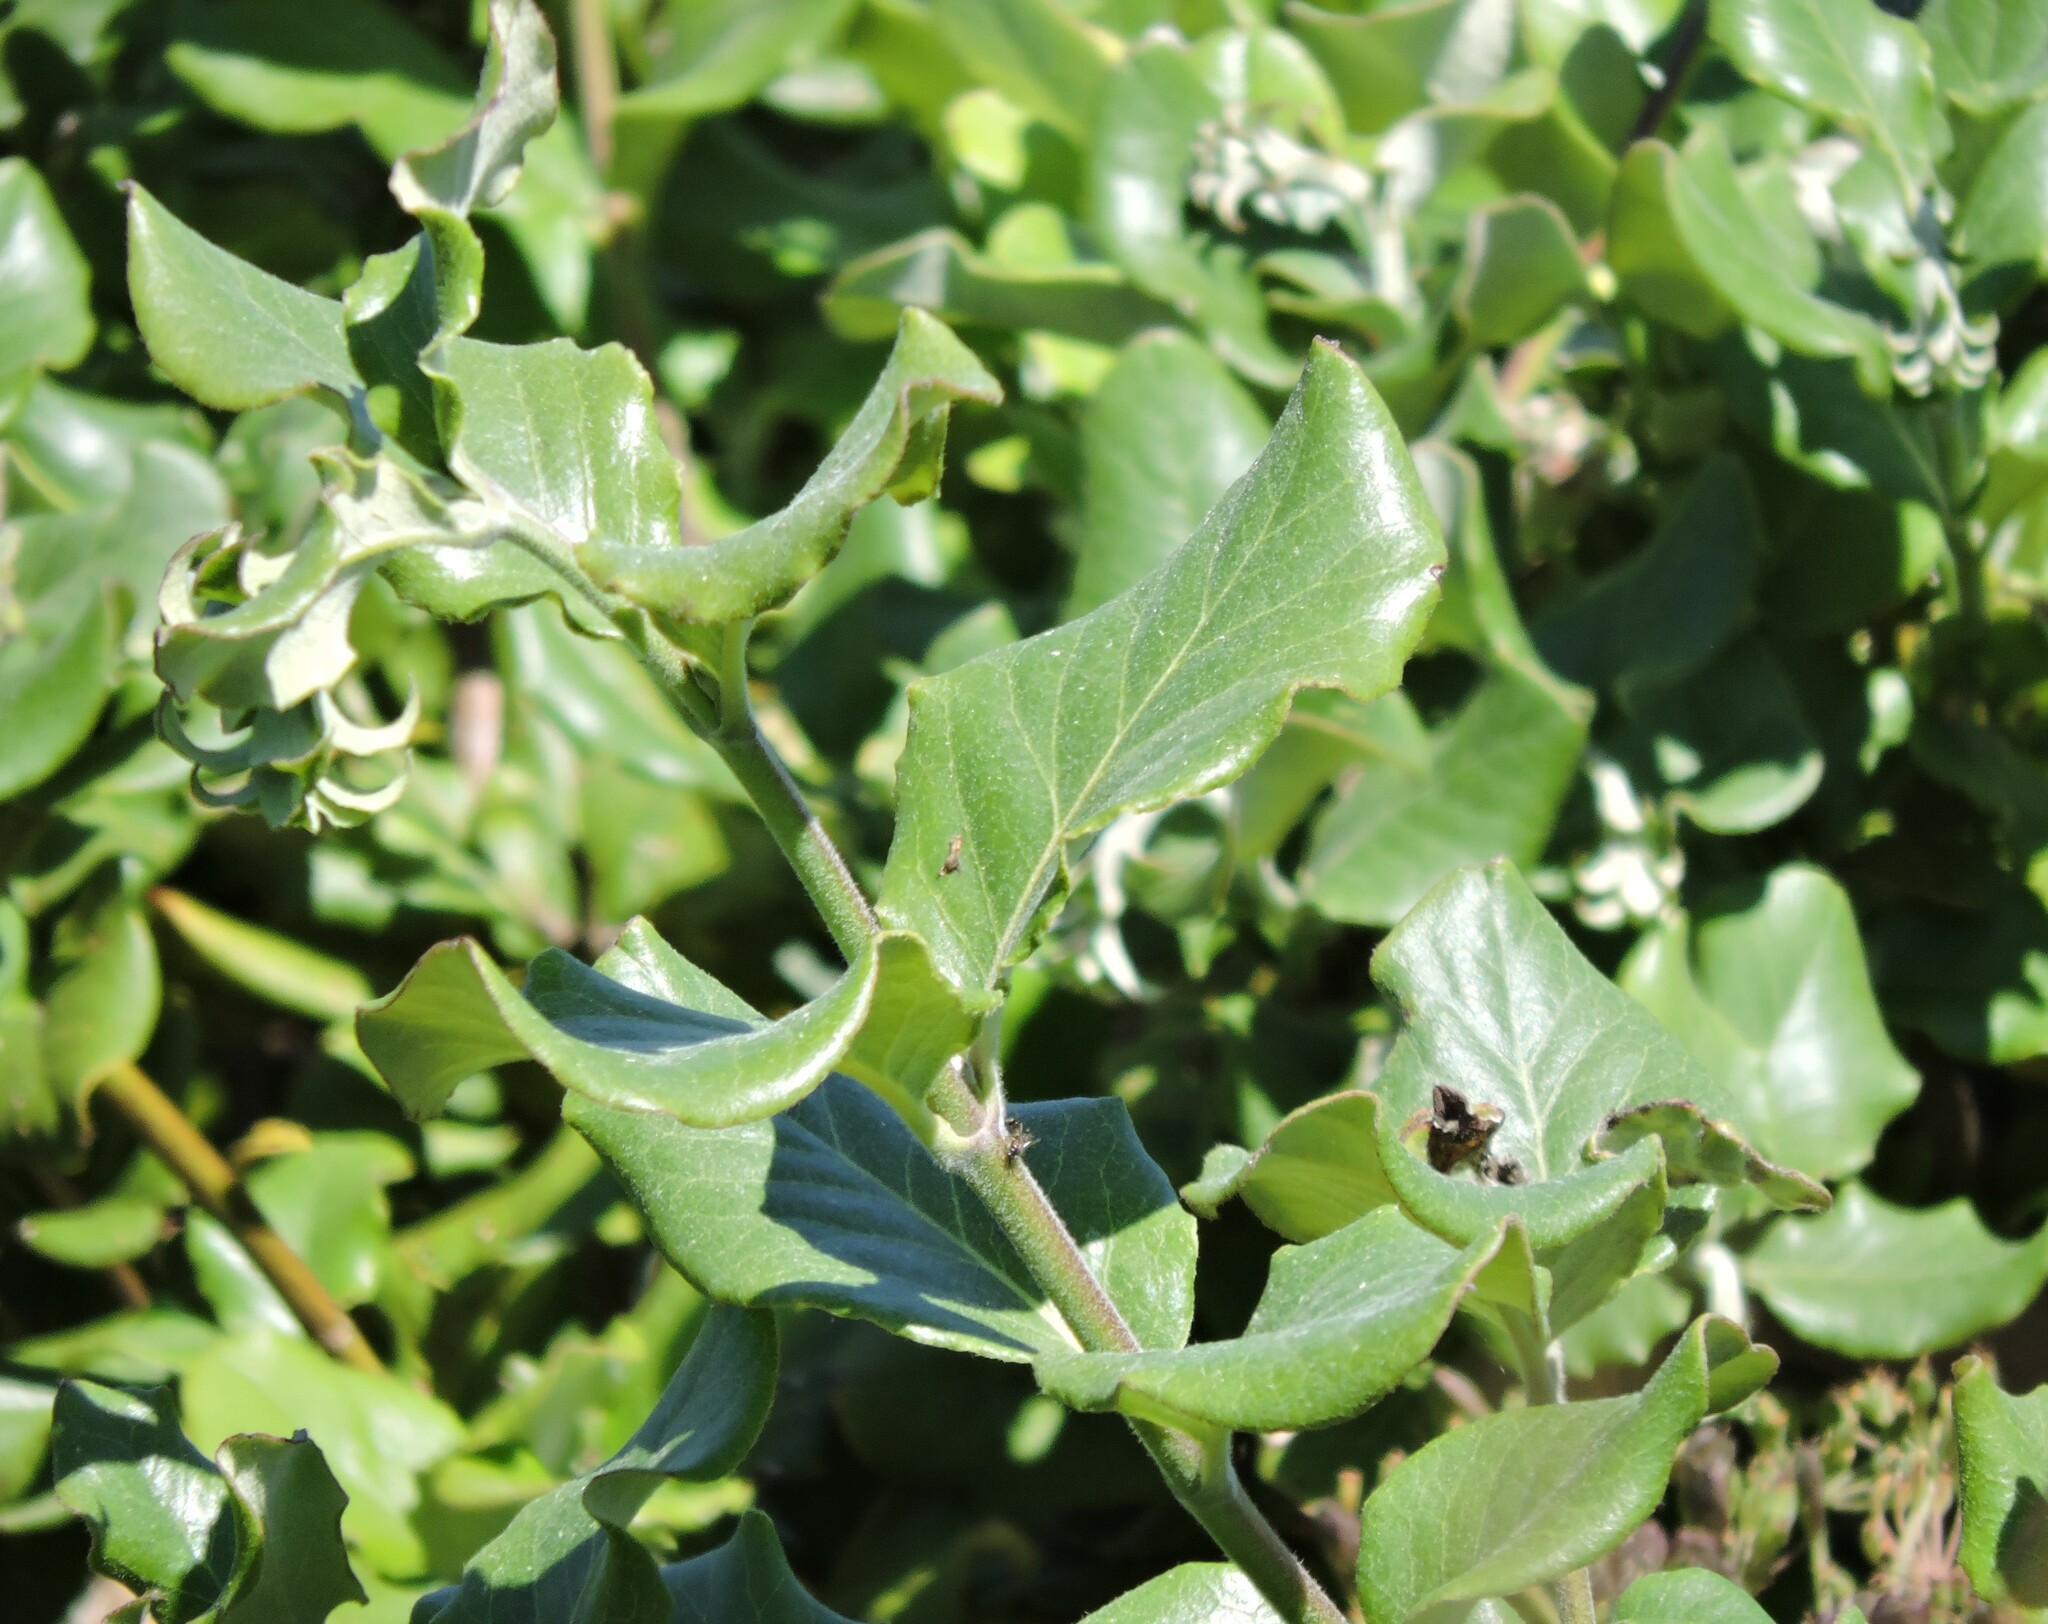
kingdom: Plantae
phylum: Tracheophyta
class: Magnoliopsida
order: Garryales
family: Garryaceae
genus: Garrya
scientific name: Garrya elliptica
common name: Silk-tassel
